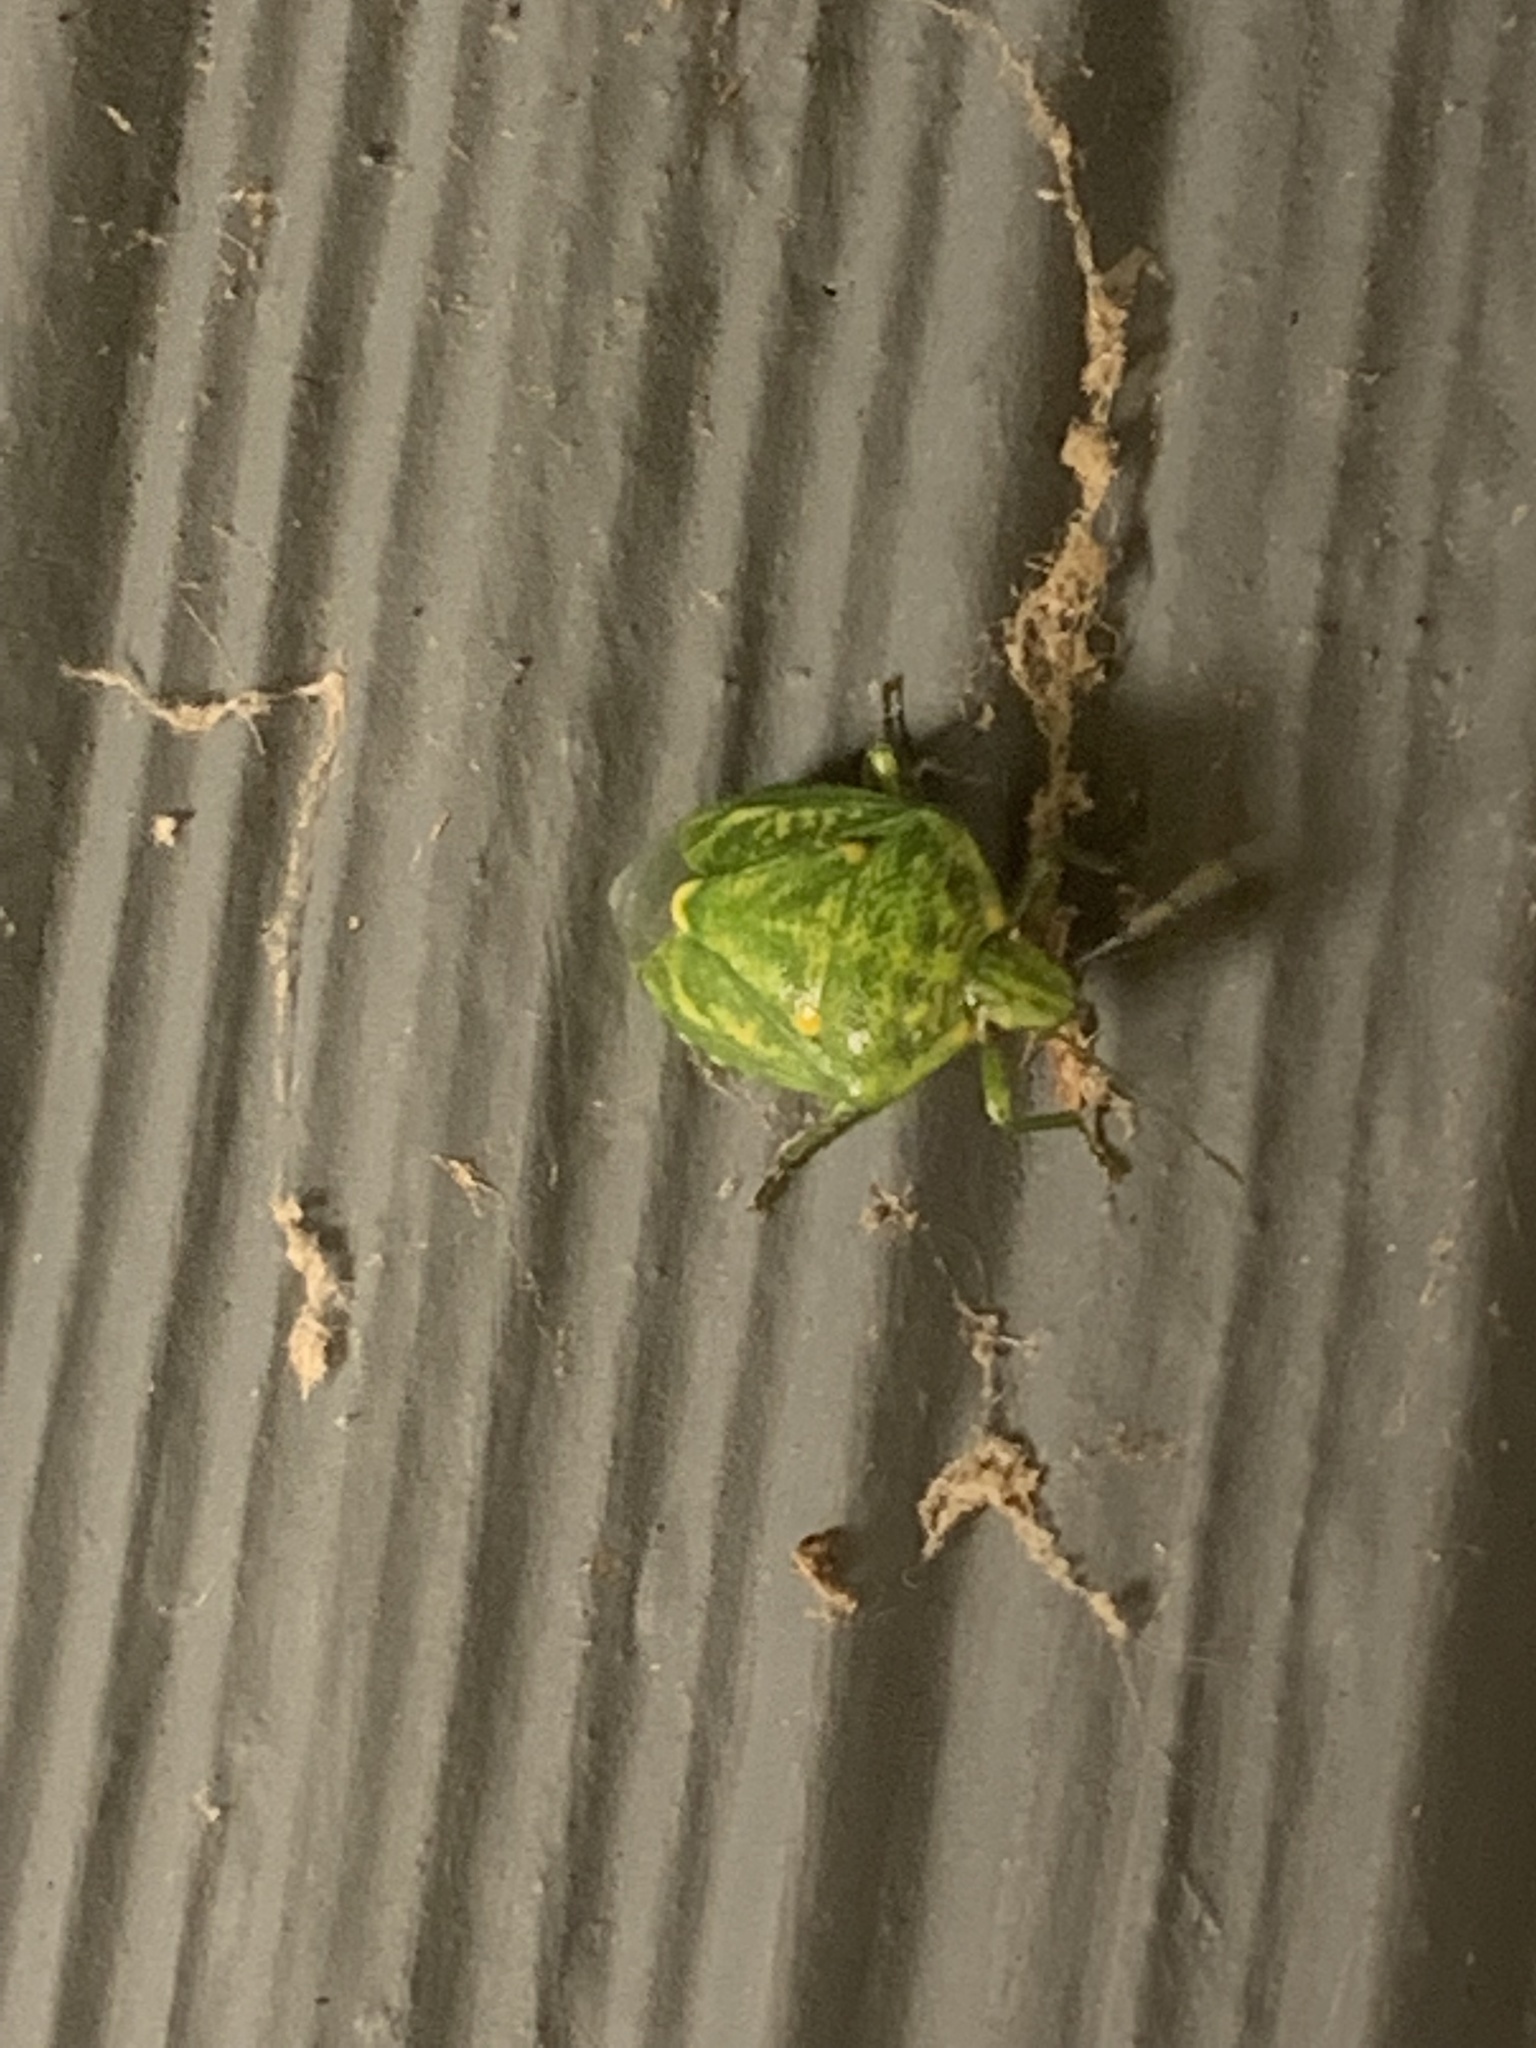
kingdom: Animalia
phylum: Arthropoda
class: Insecta
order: Hemiptera
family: Pentatomidae
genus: Banasa
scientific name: Banasa euchlora
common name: Cedar berry bug
